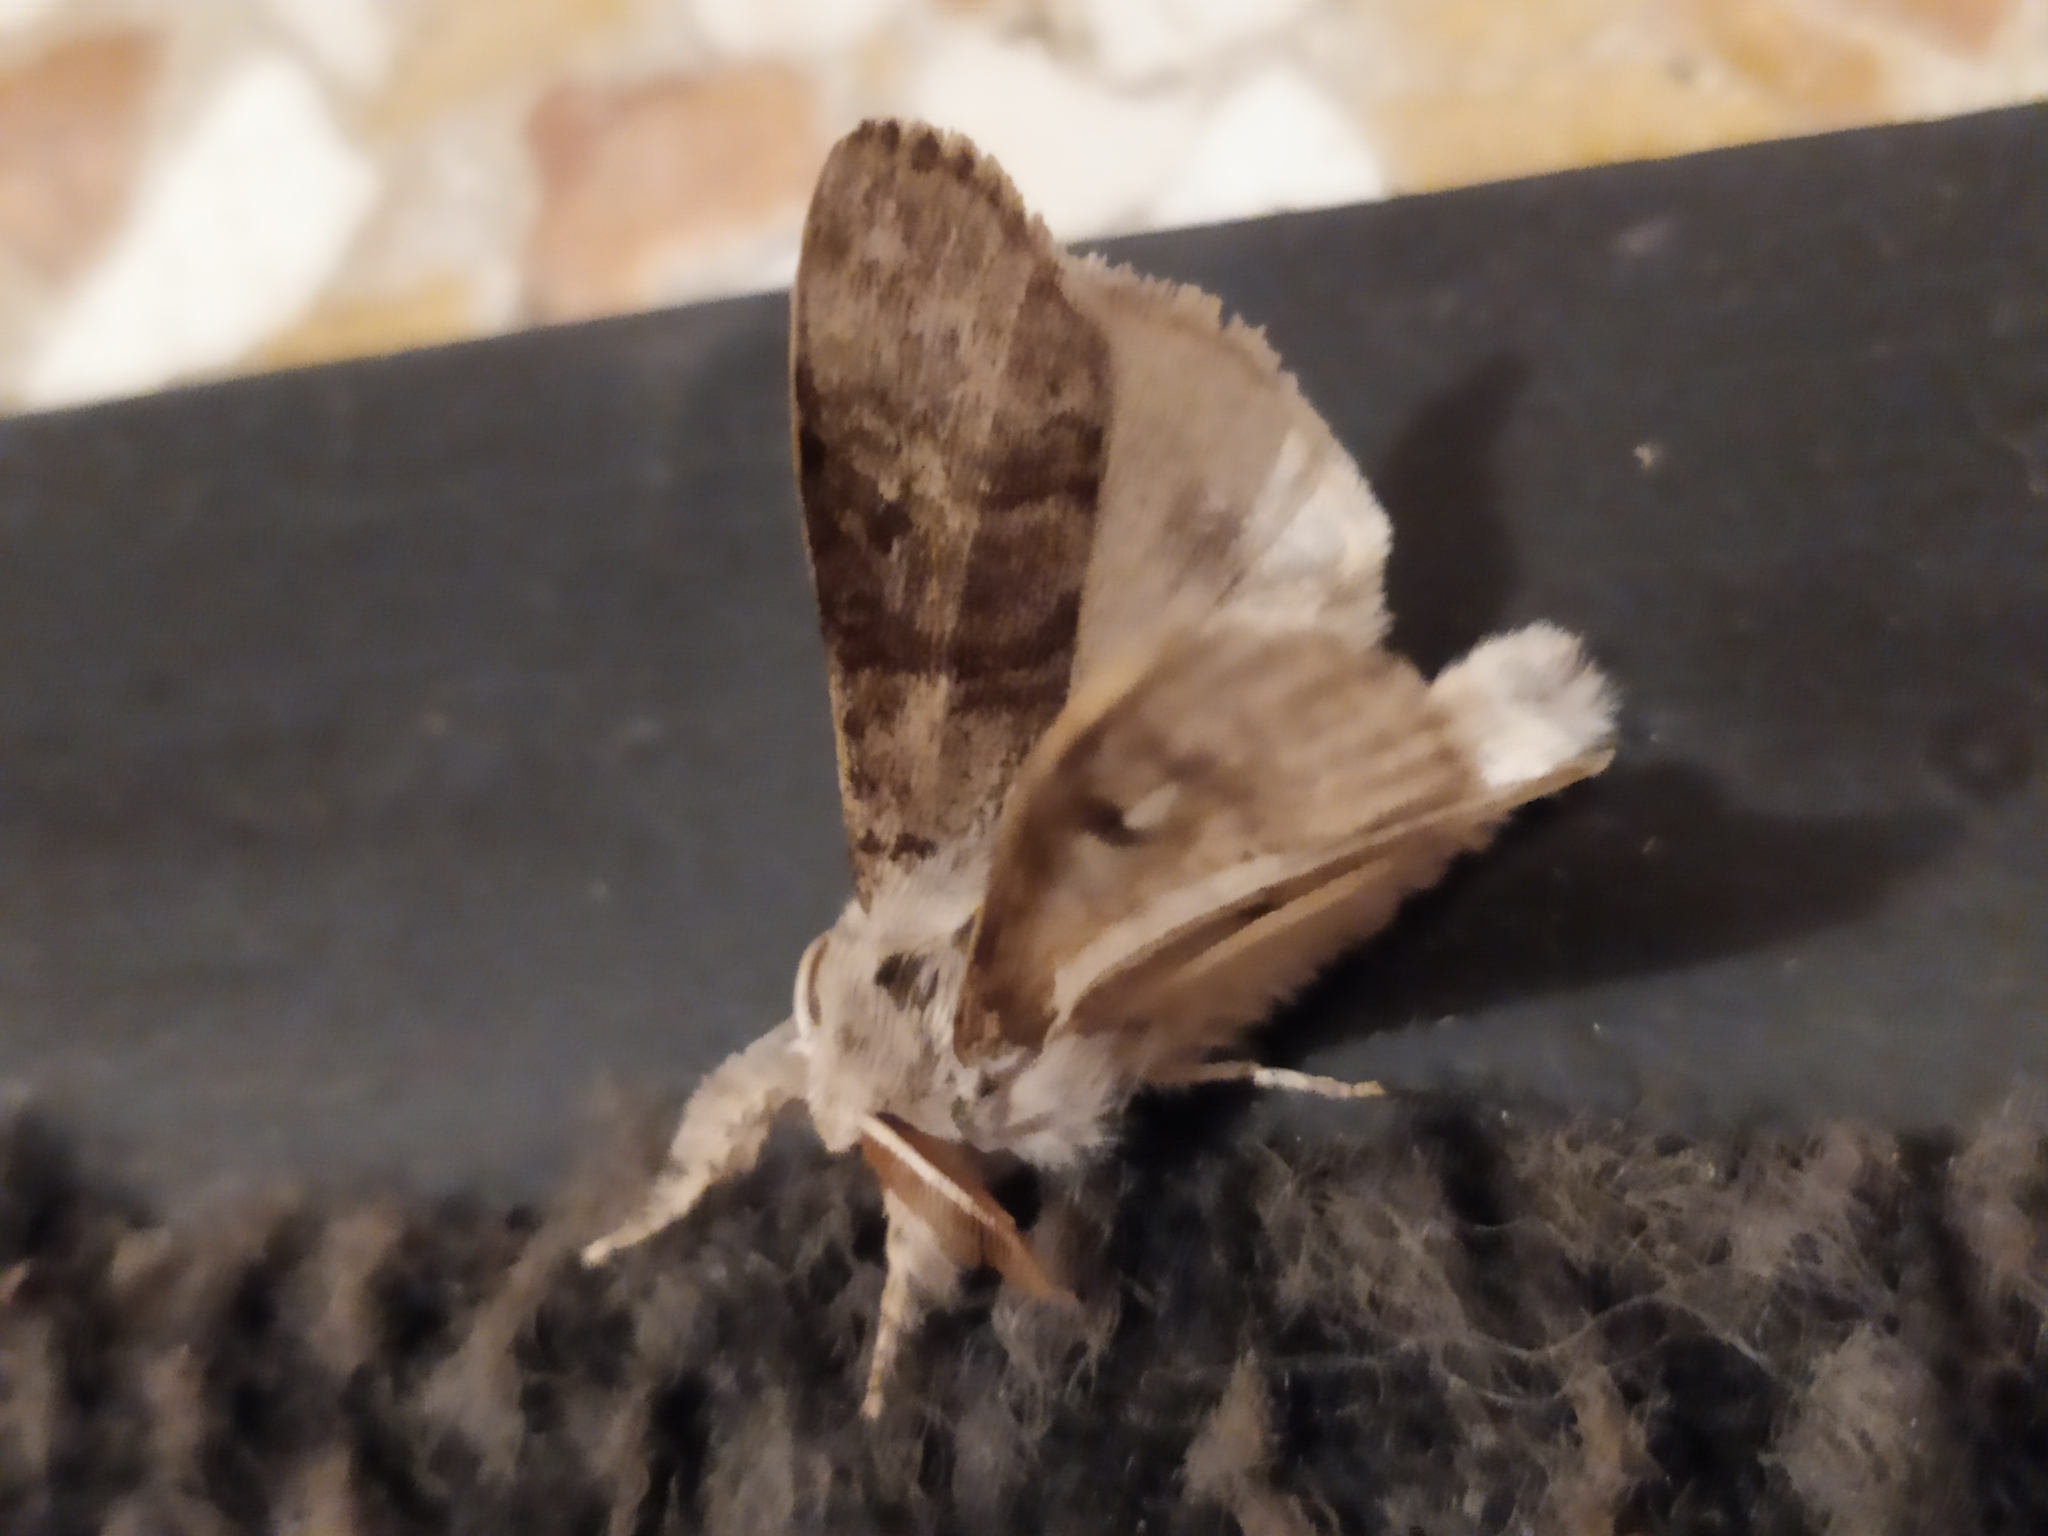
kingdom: Animalia
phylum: Arthropoda
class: Insecta
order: Lepidoptera
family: Erebidae
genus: Calliteara
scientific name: Calliteara pudibunda
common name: Pale tussock
